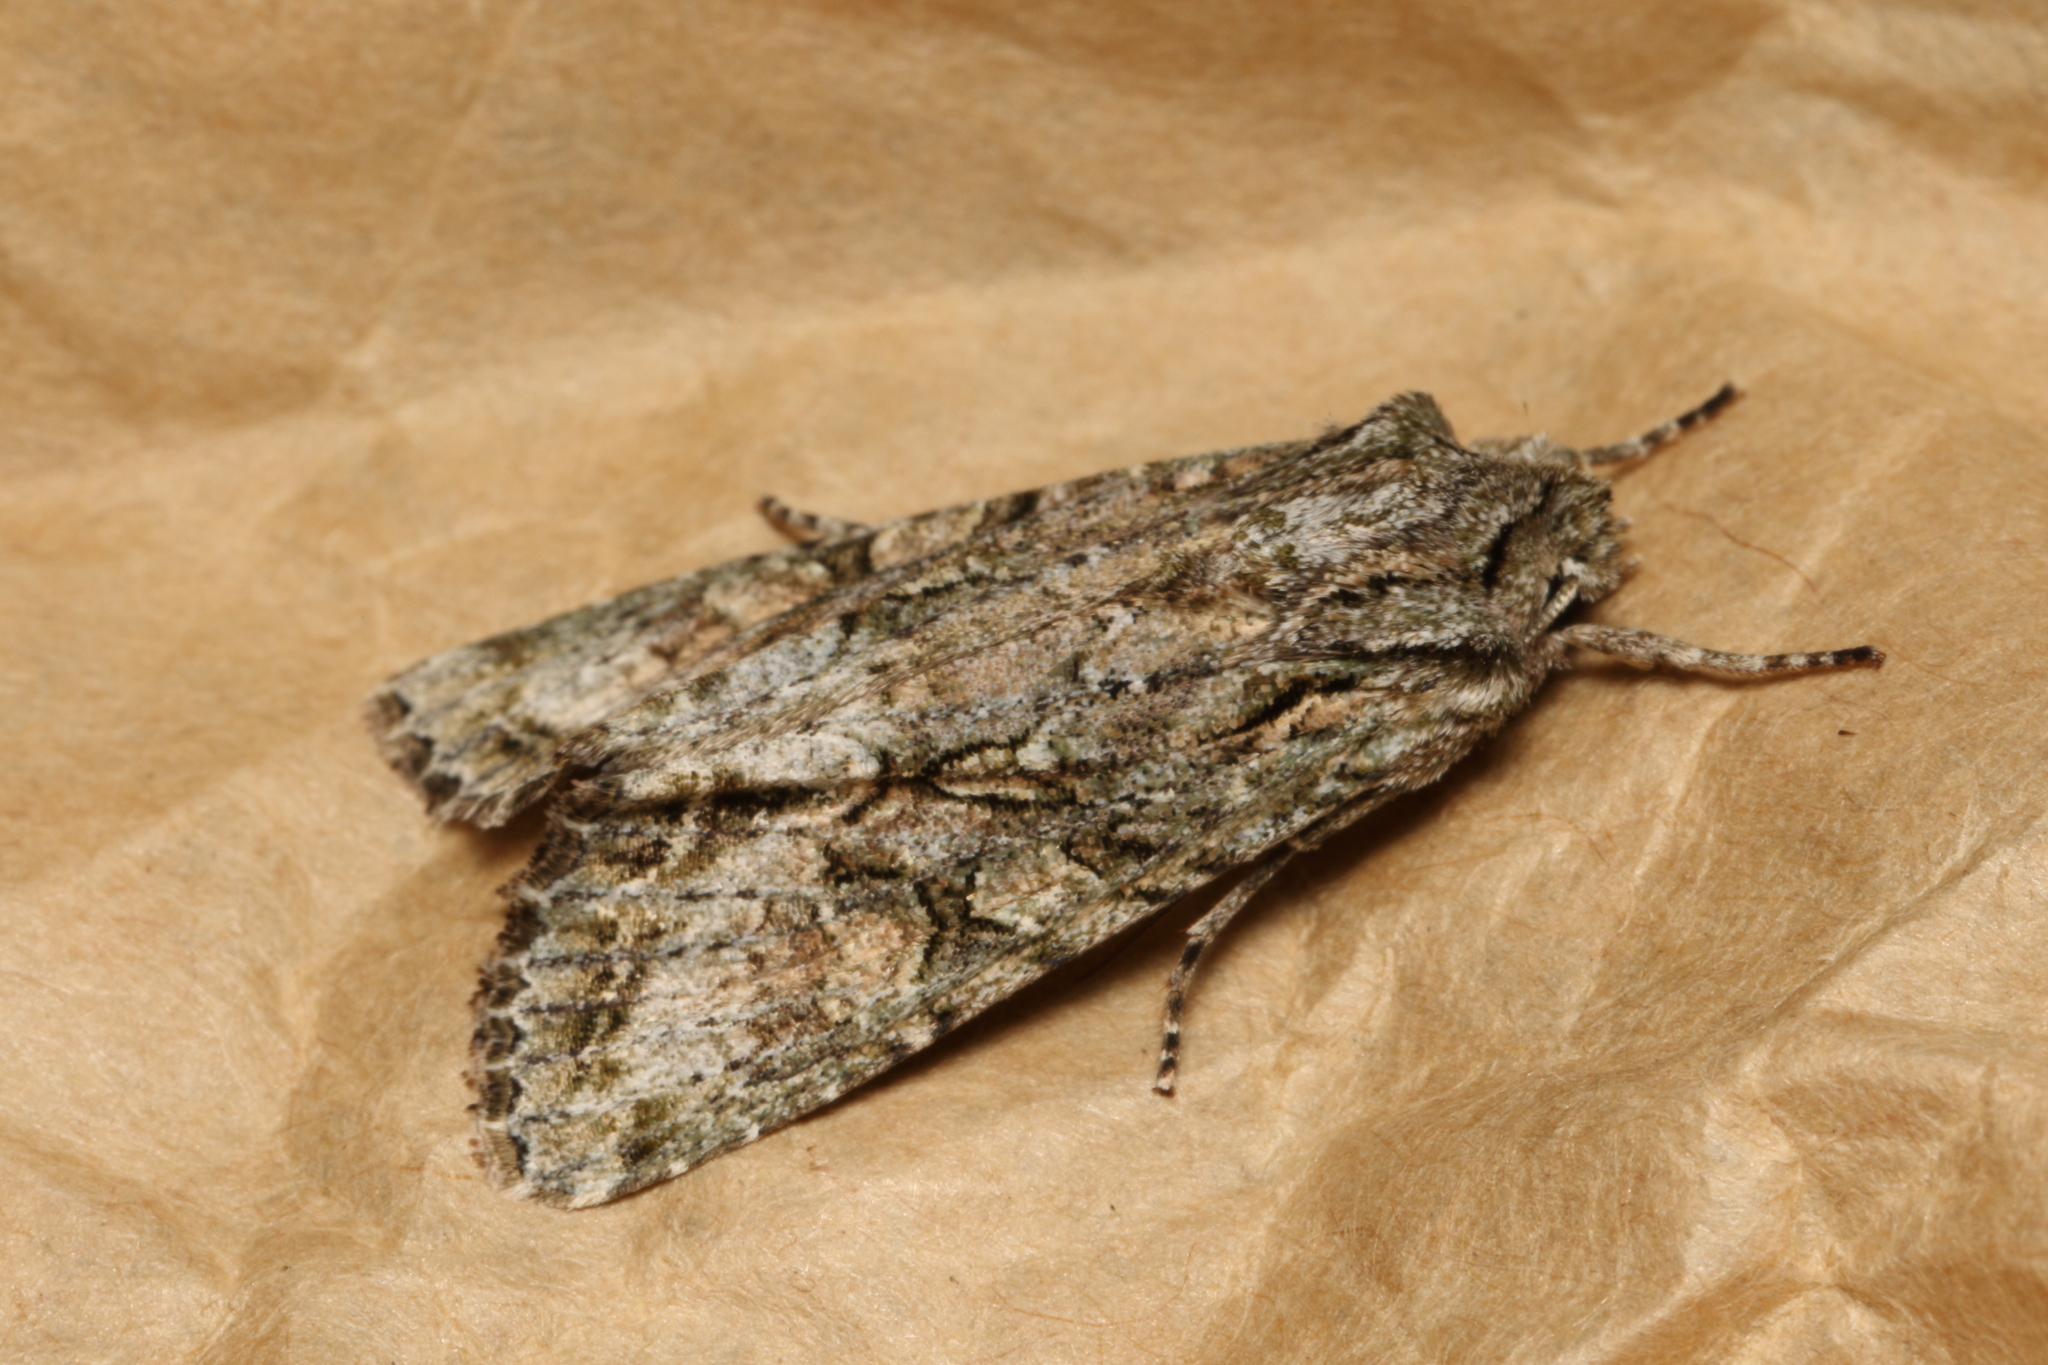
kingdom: Animalia
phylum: Arthropoda
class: Insecta
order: Lepidoptera
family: Noctuidae
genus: Ichneutica
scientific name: Ichneutica mutans
